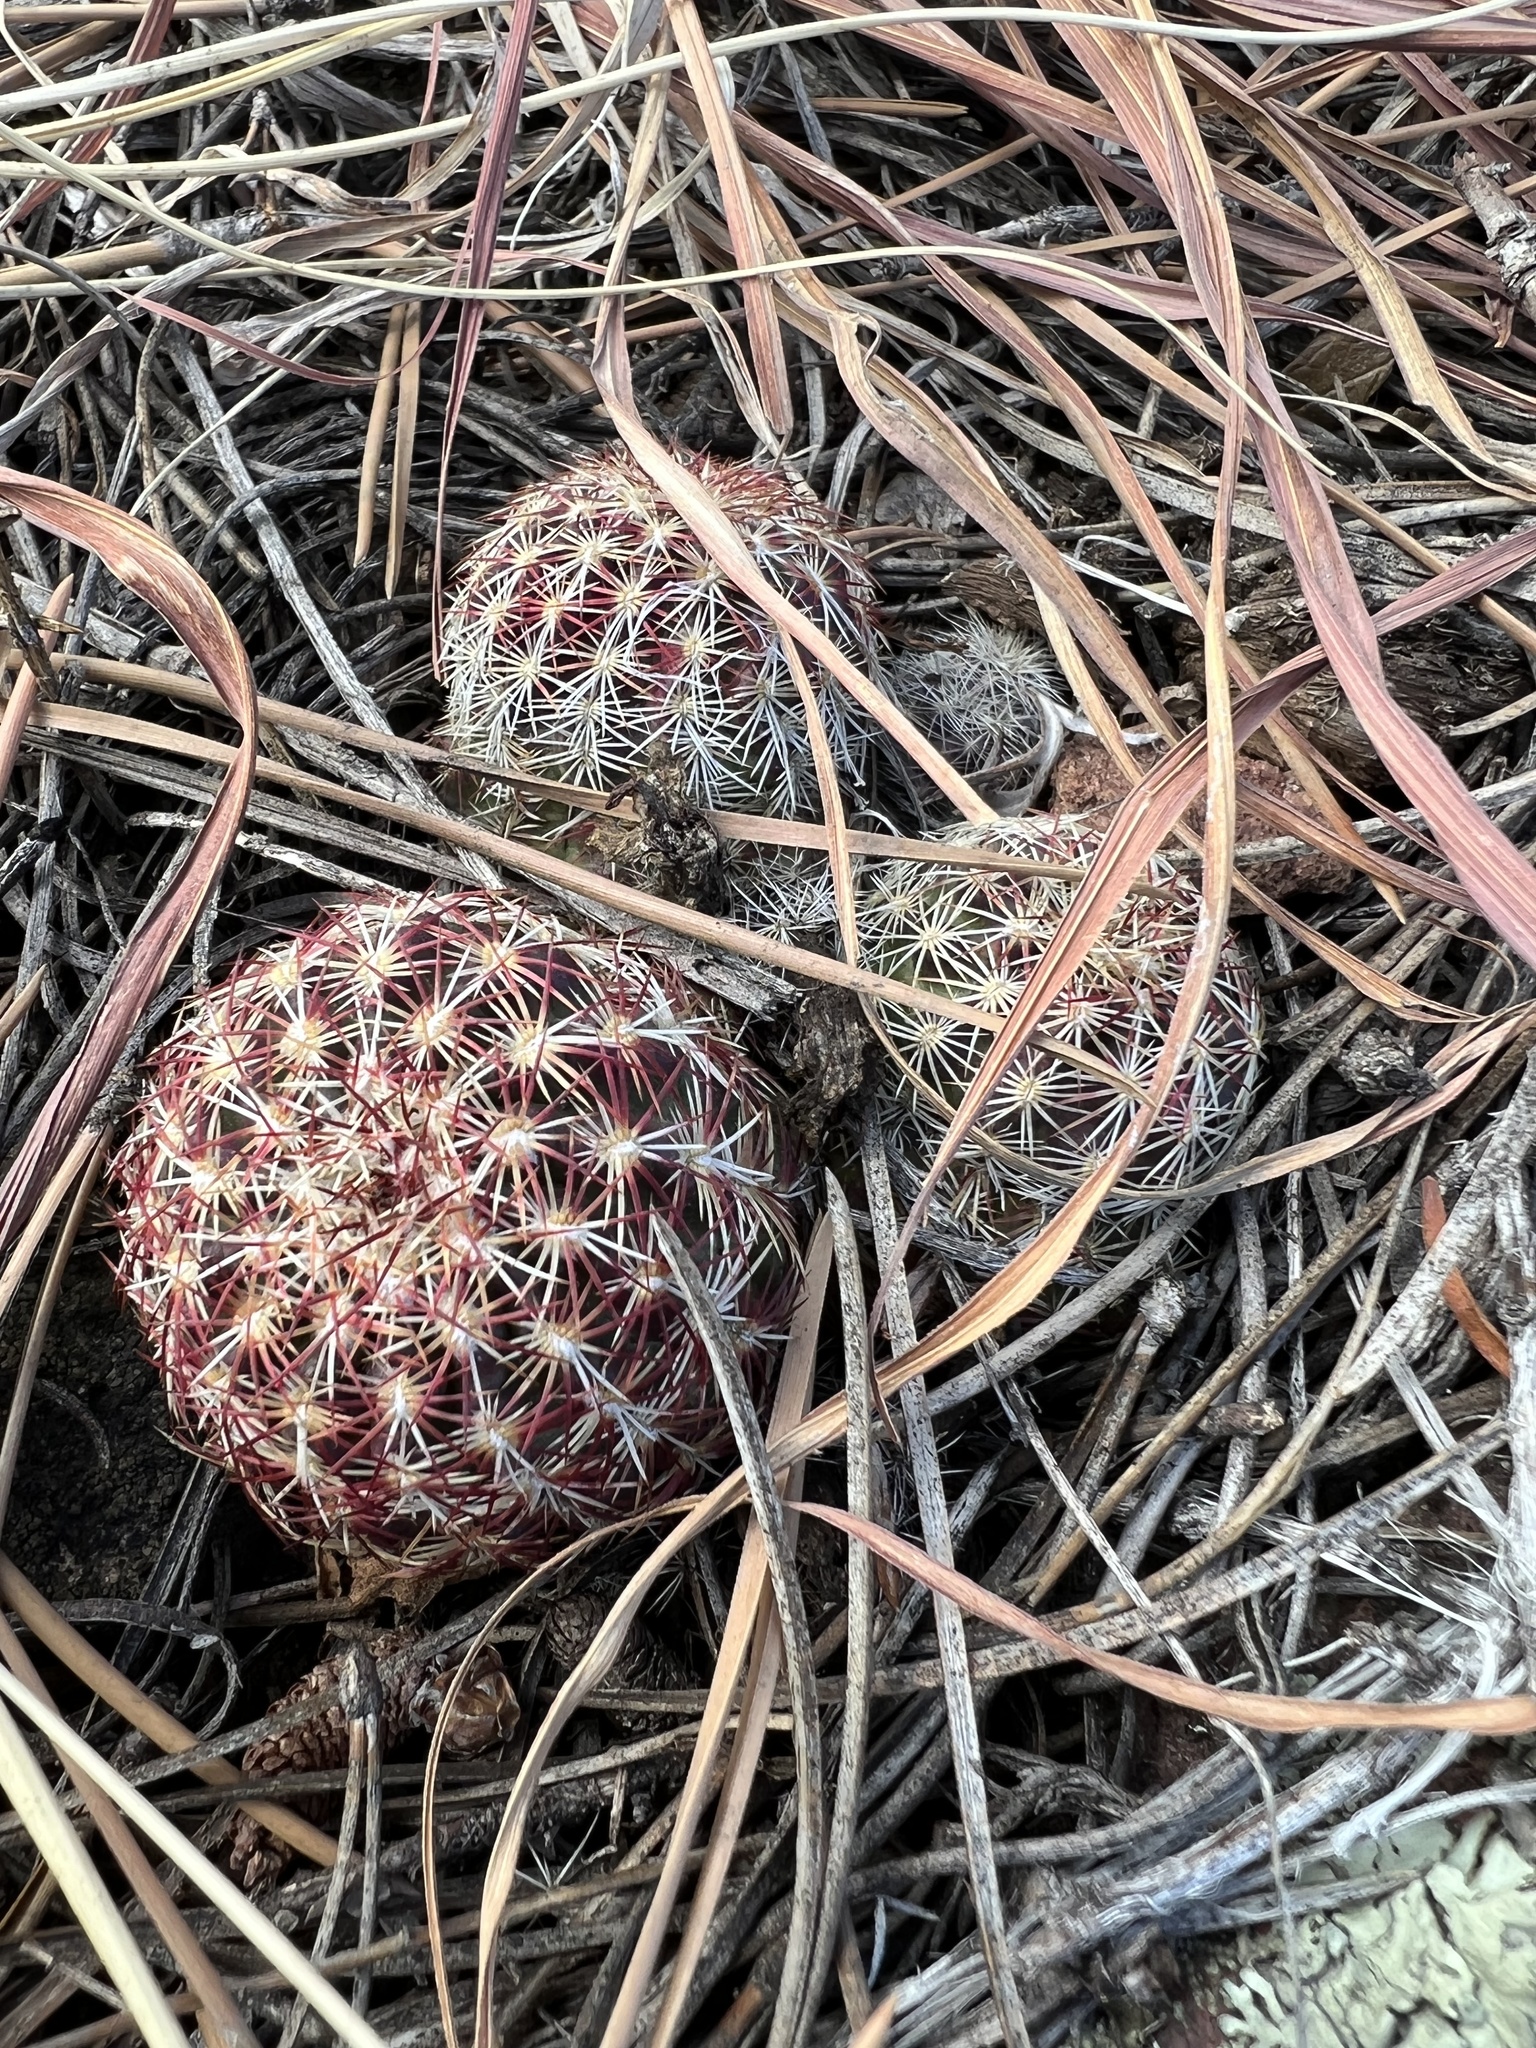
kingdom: Plantae
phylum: Tracheophyta
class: Magnoliopsida
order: Caryophyllales
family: Cactaceae
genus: Echinocereus
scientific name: Echinocereus viridiflorus
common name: Nylon hedgehog cactus
